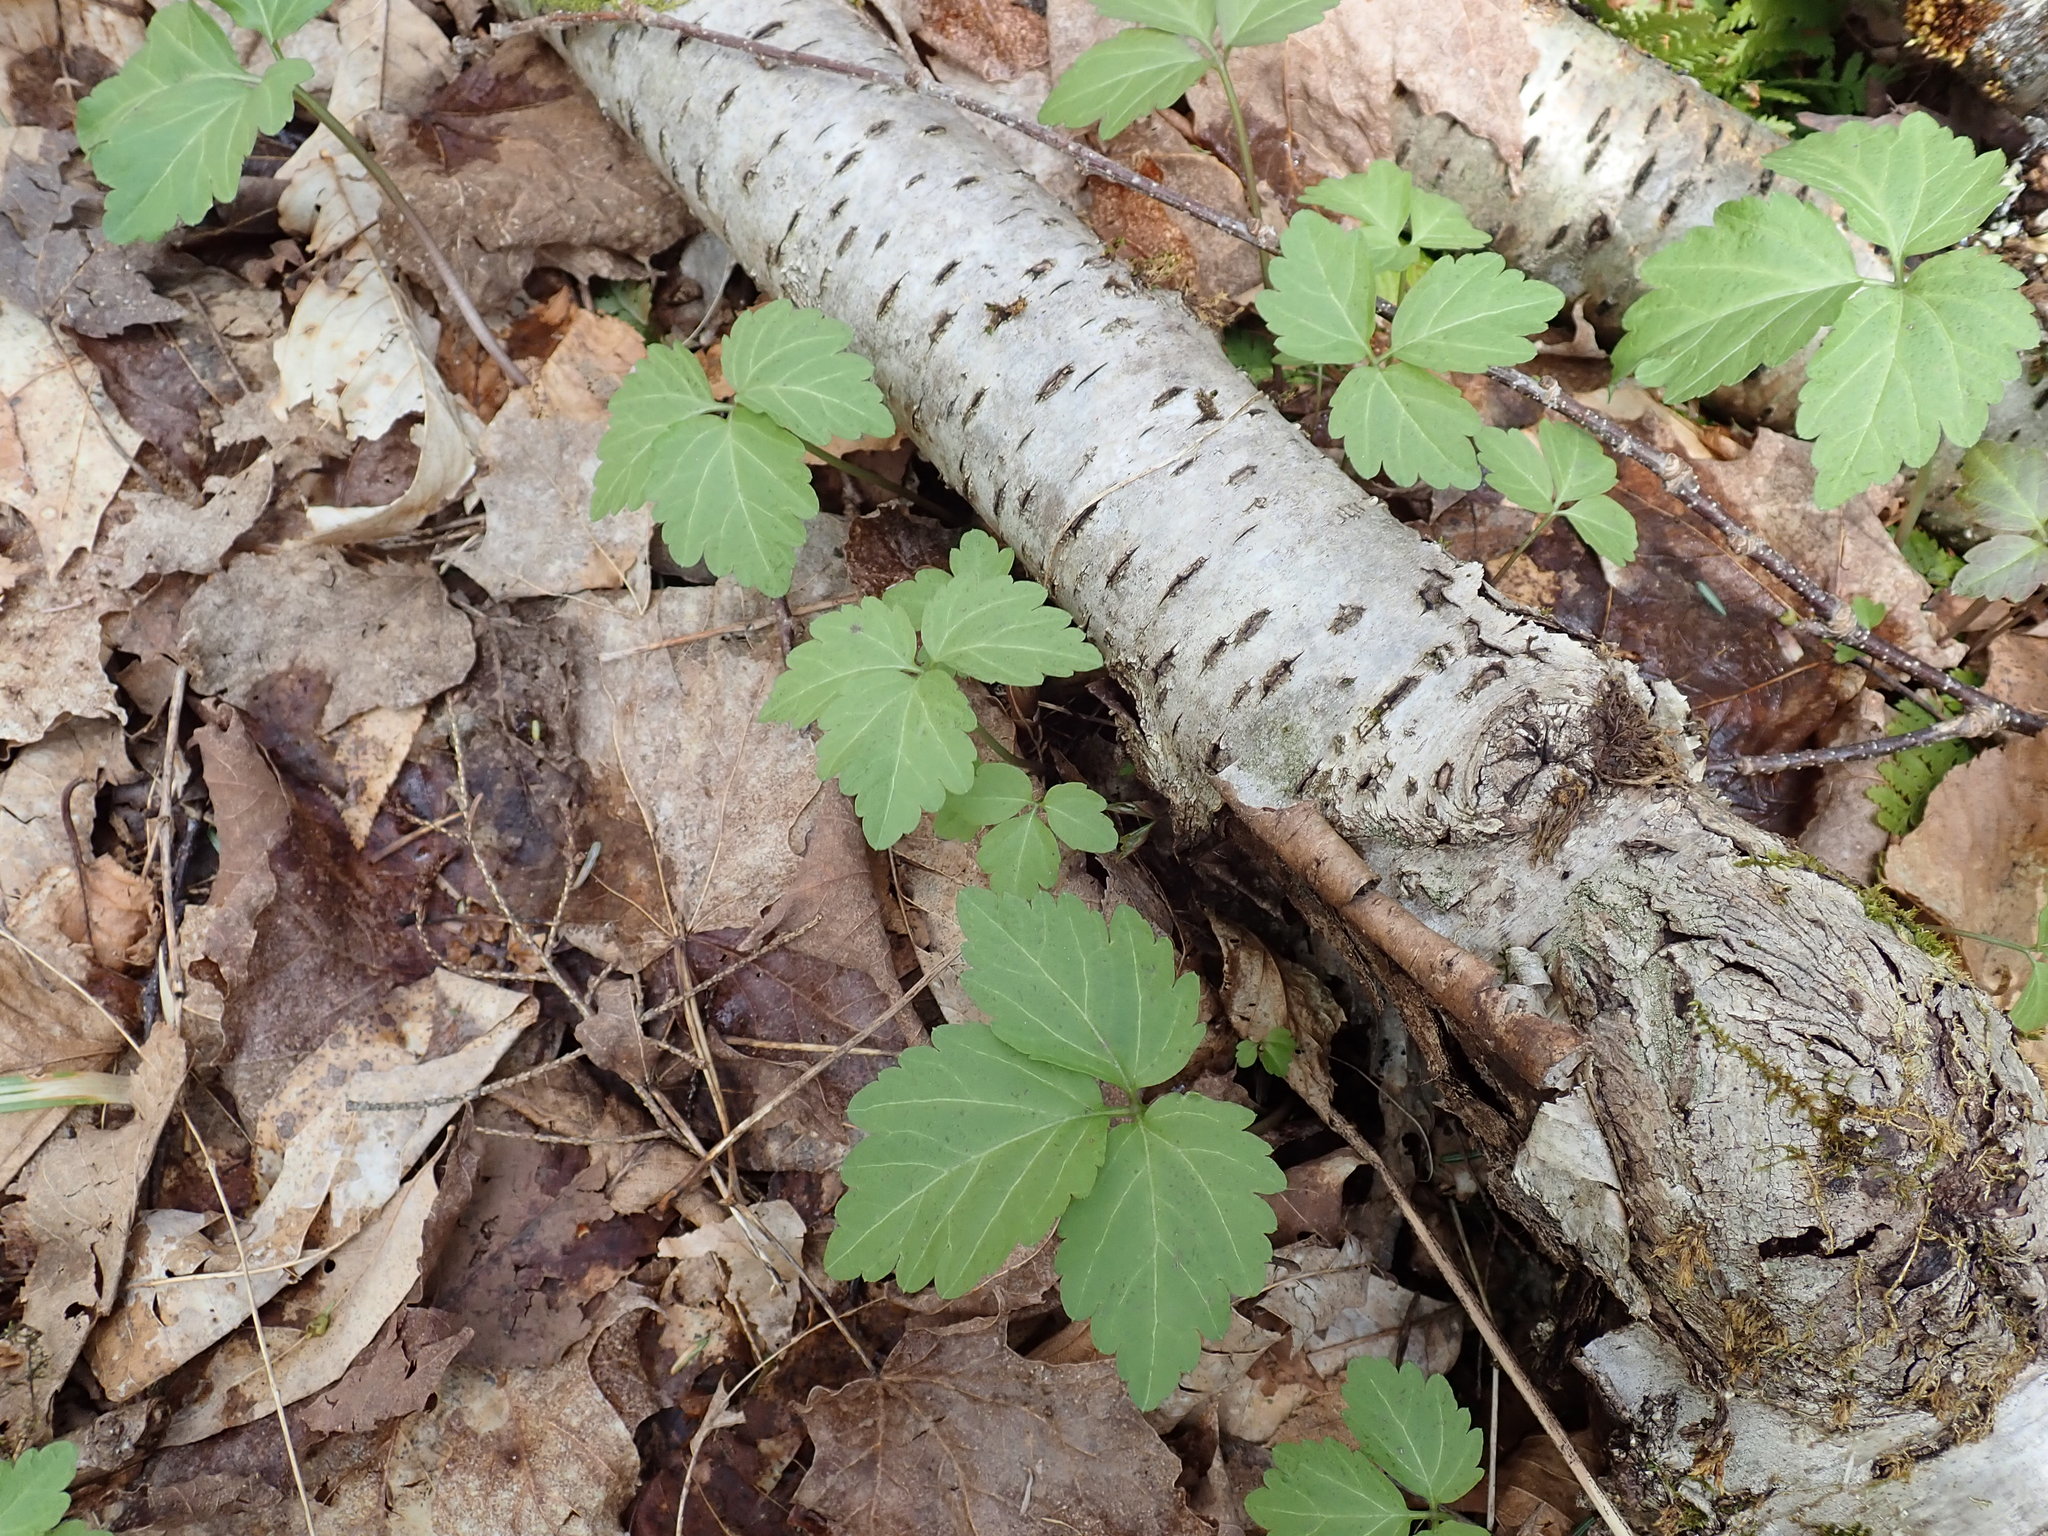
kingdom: Plantae
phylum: Tracheophyta
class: Magnoliopsida
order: Brassicales
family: Brassicaceae
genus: Cardamine
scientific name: Cardamine
